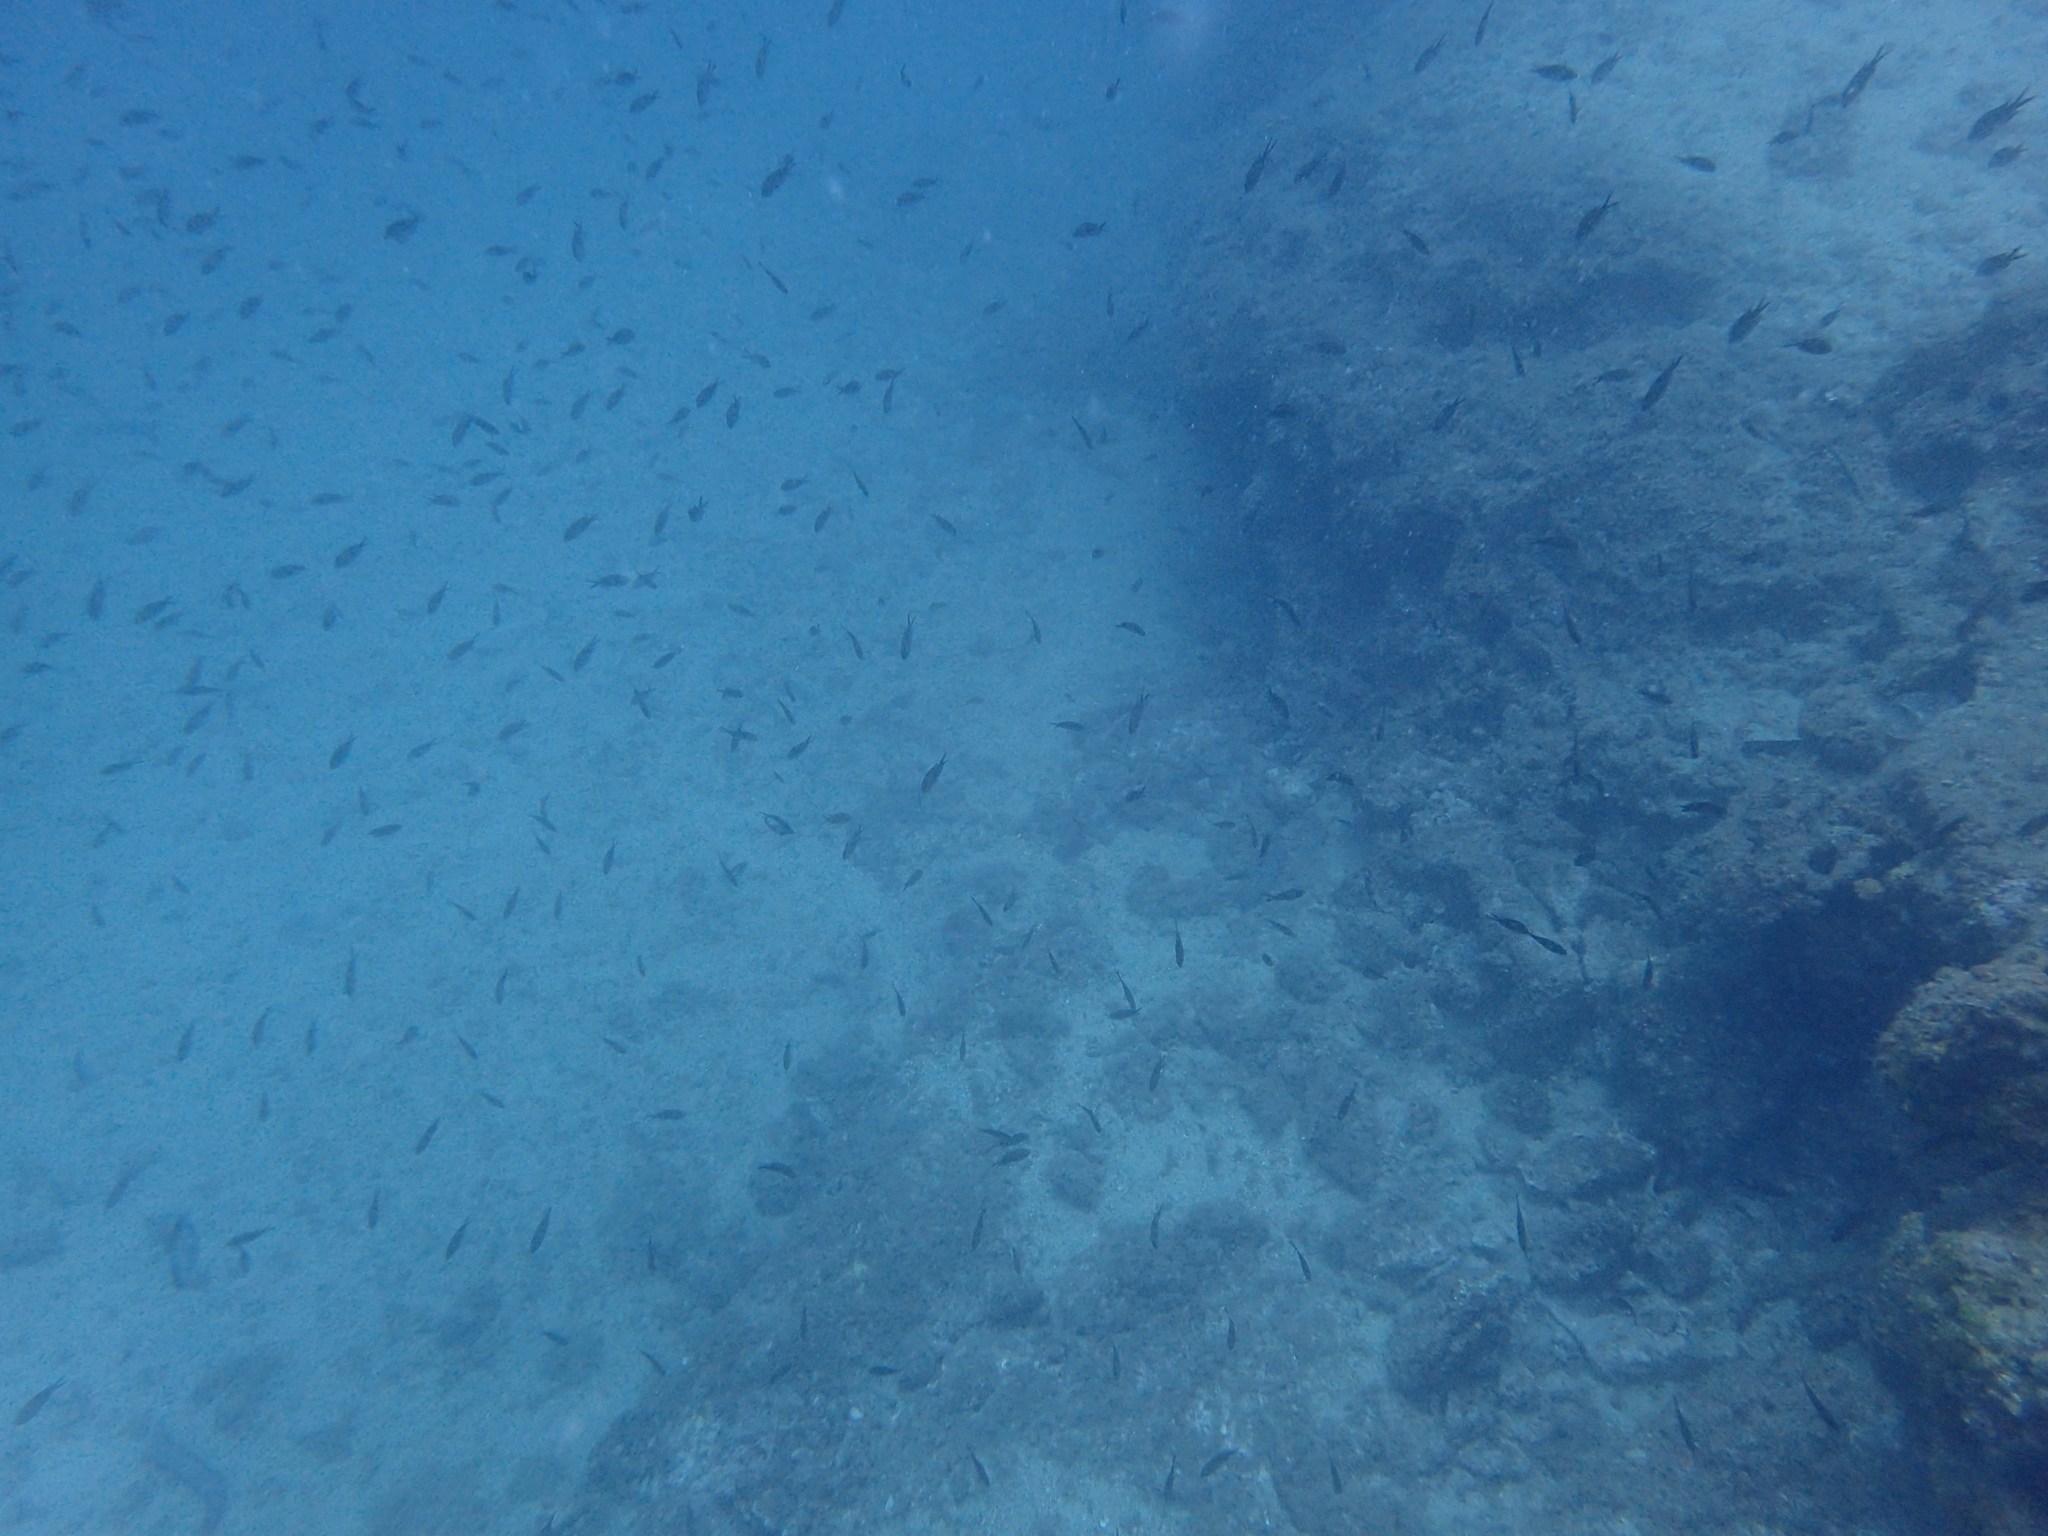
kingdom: Animalia
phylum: Chordata
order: Perciformes
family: Pomacentridae
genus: Chromis
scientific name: Chromis chromis
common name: Damselfish
